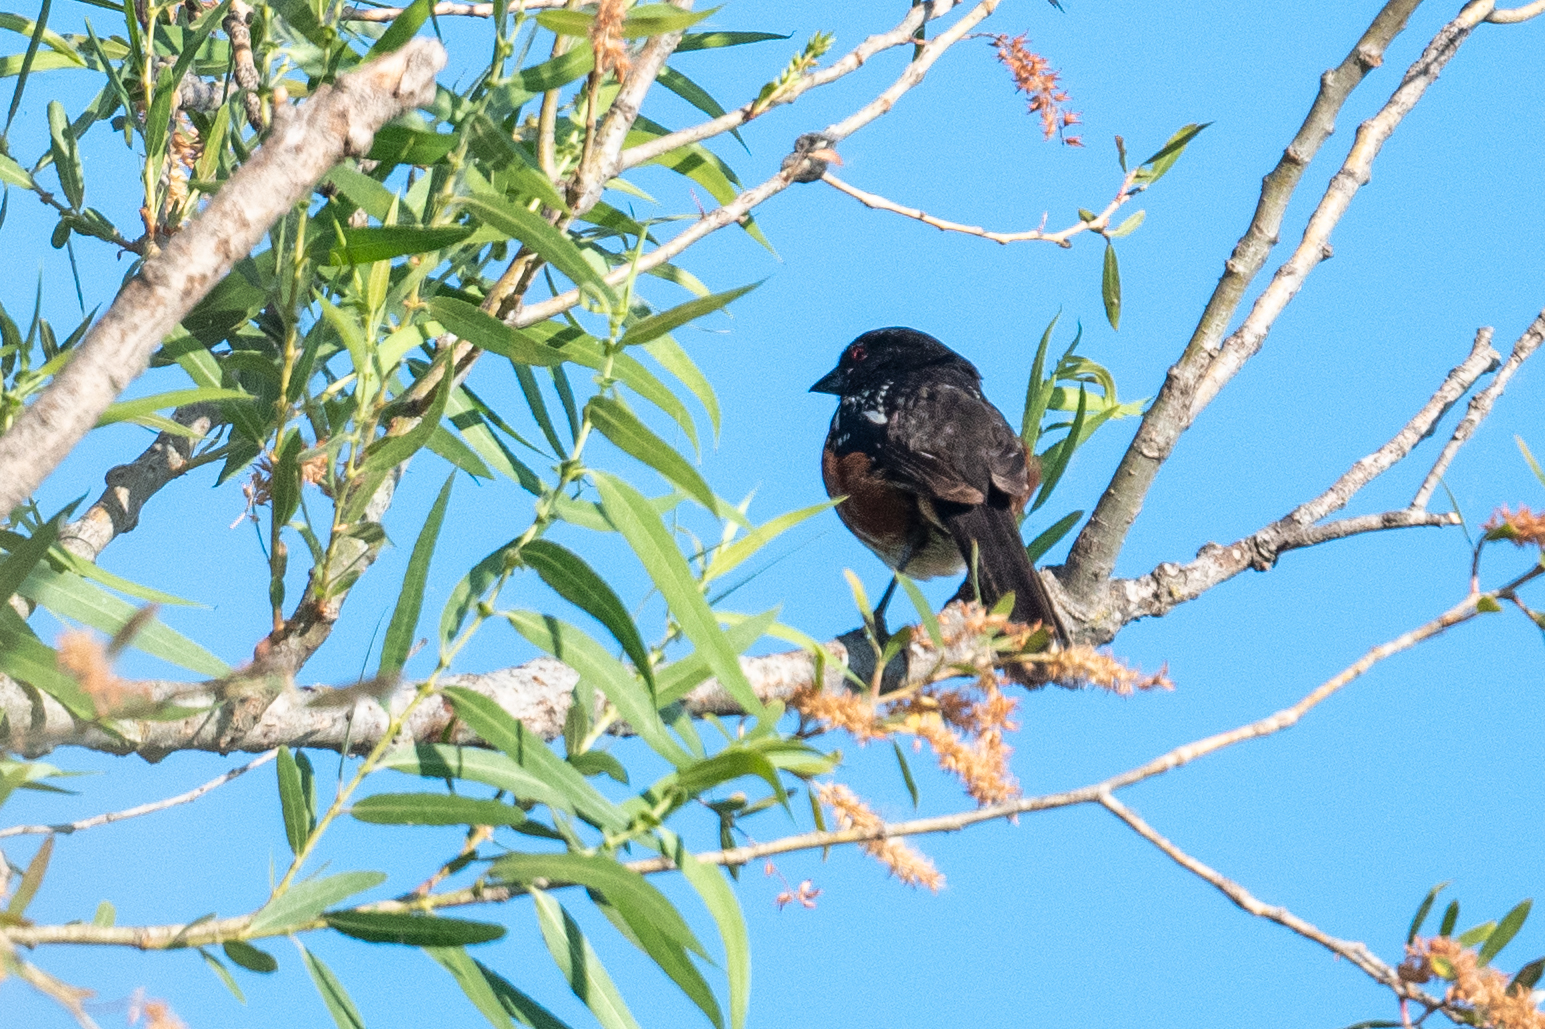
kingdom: Animalia
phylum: Chordata
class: Aves
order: Passeriformes
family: Passerellidae
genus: Pipilo
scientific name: Pipilo maculatus
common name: Spotted towhee
